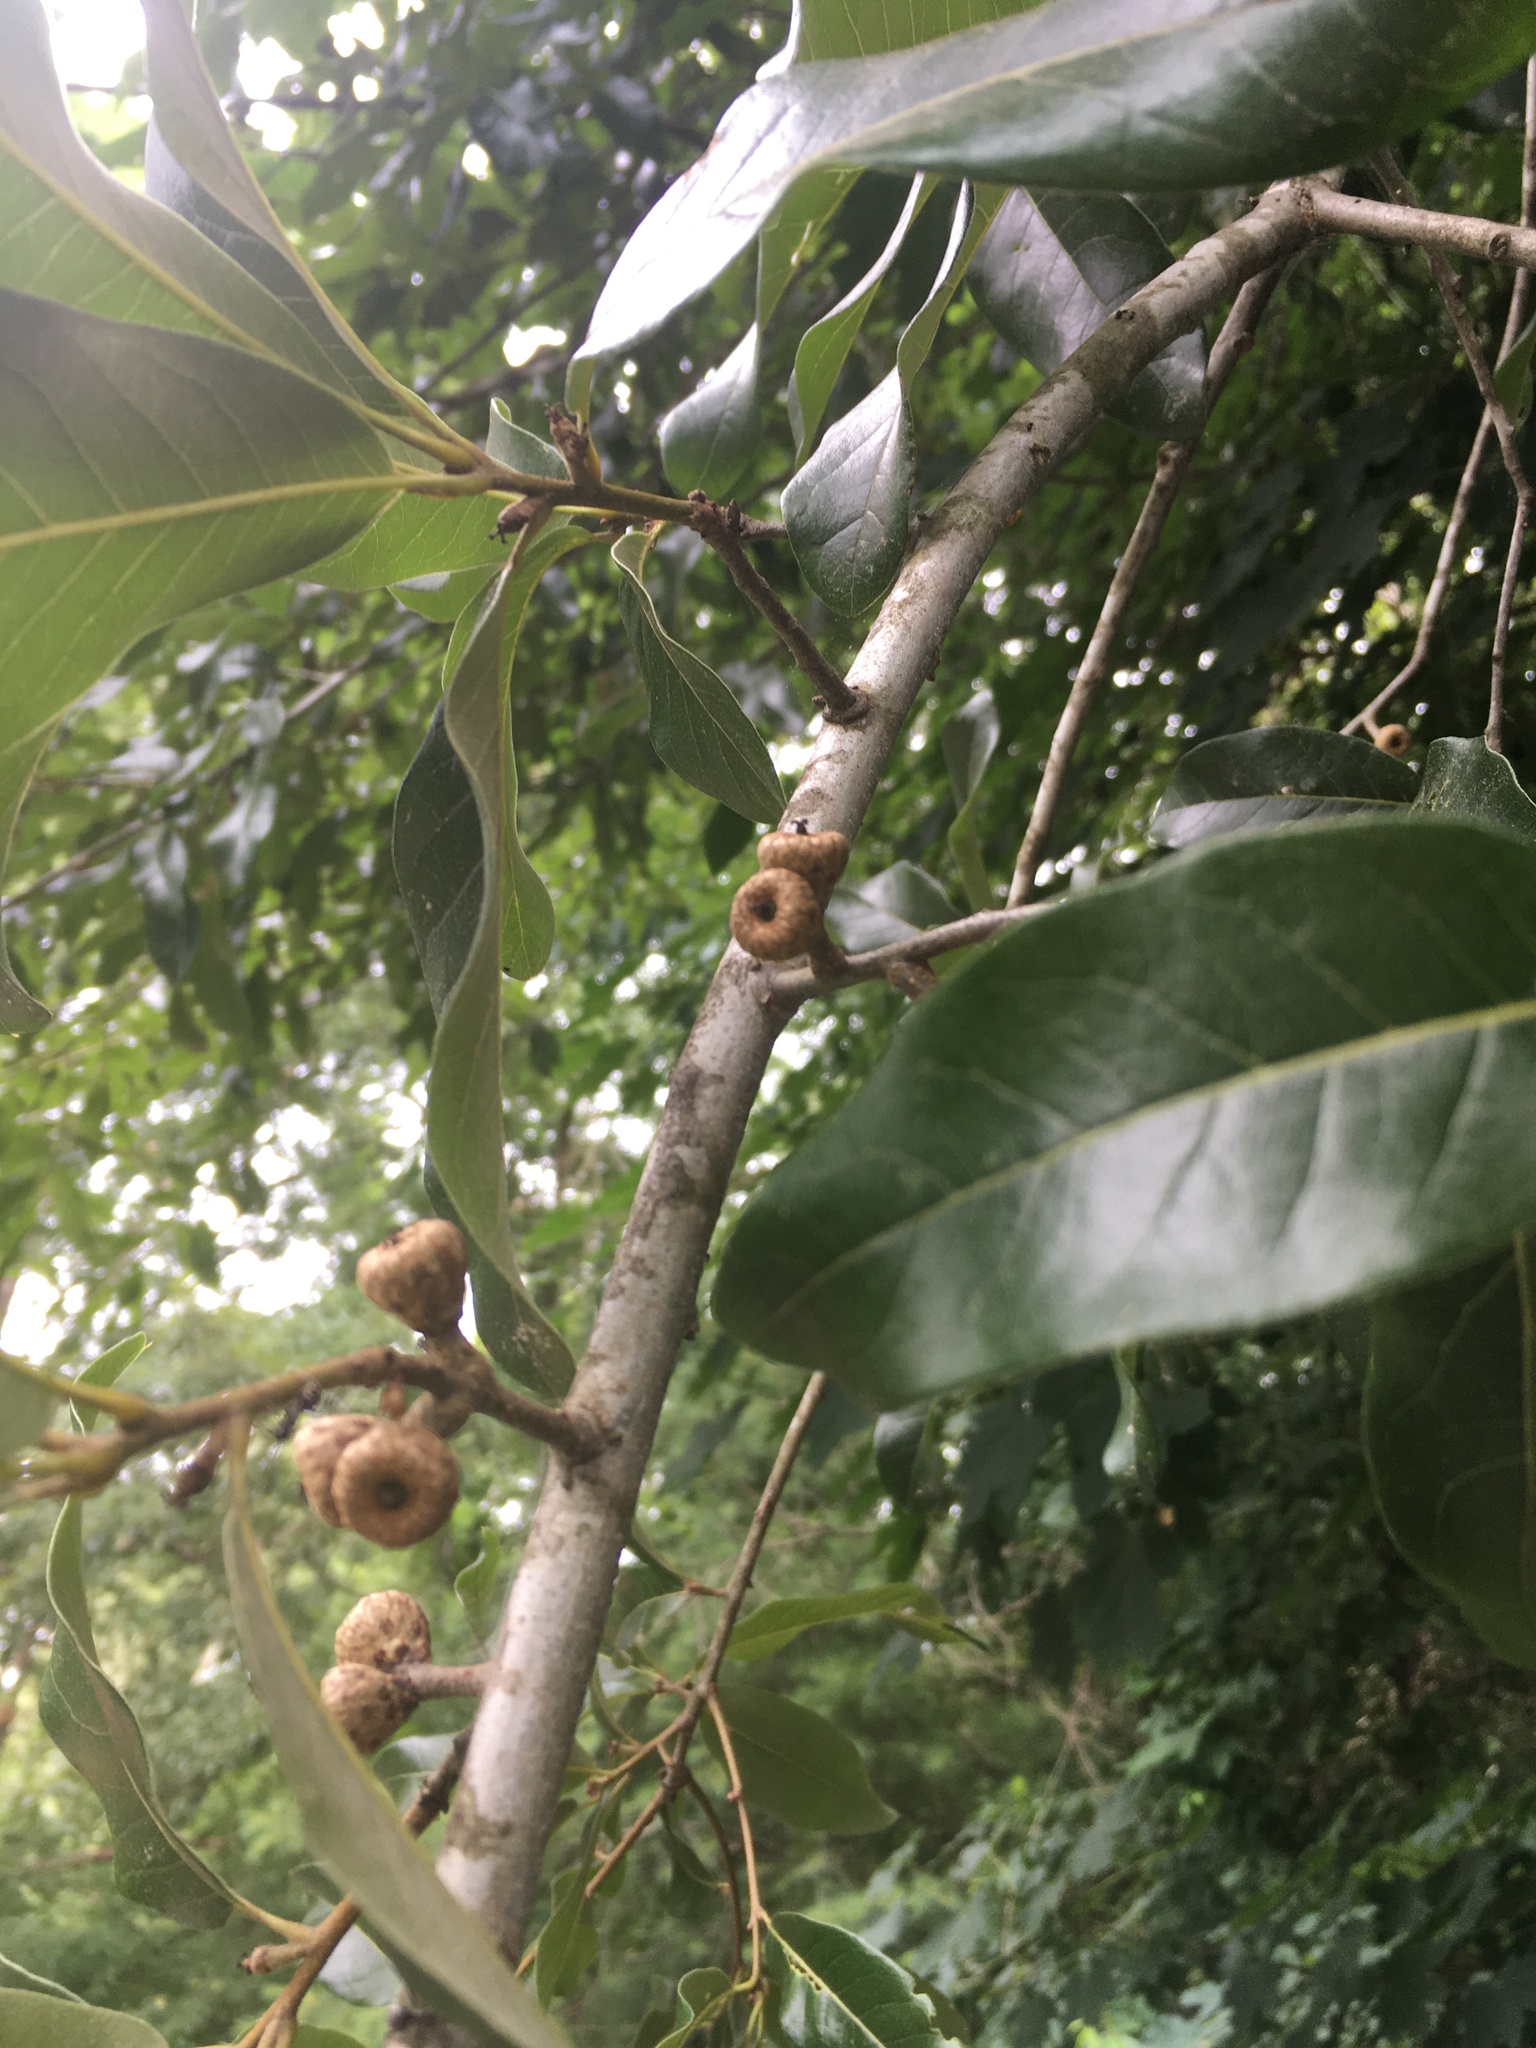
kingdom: Plantae
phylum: Tracheophyta
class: Magnoliopsida
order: Fagales
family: Fagaceae
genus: Quercus
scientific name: Quercus imbricaria
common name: Shingle oak
